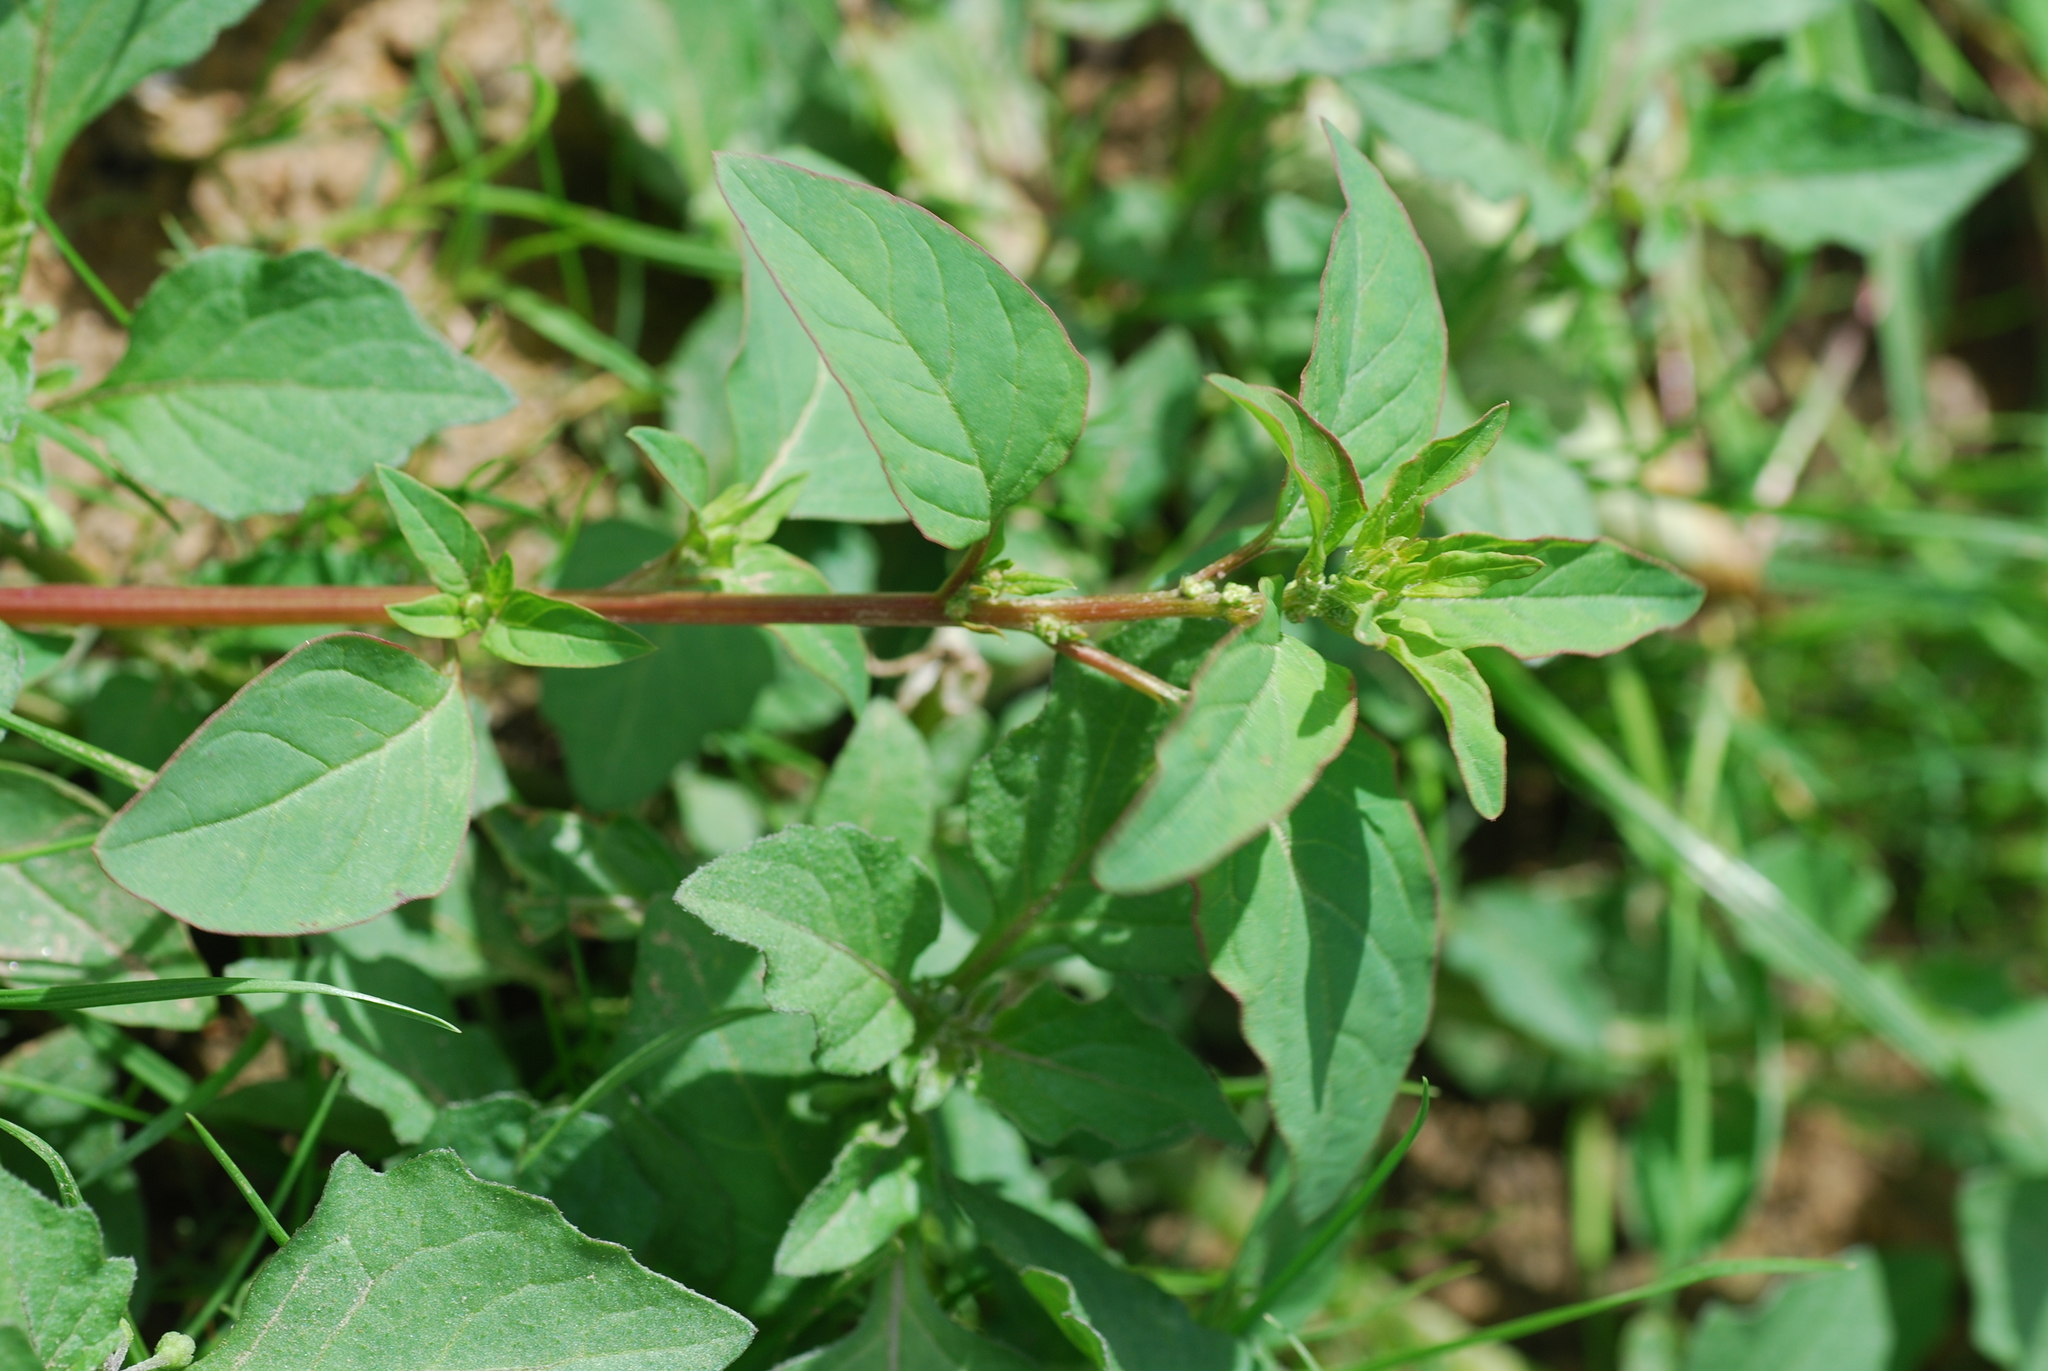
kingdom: Plantae
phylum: Tracheophyta
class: Magnoliopsida
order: Caryophyllales
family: Amaranthaceae
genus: Lipandra
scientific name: Lipandra polysperma
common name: Many-seed goosefoot
